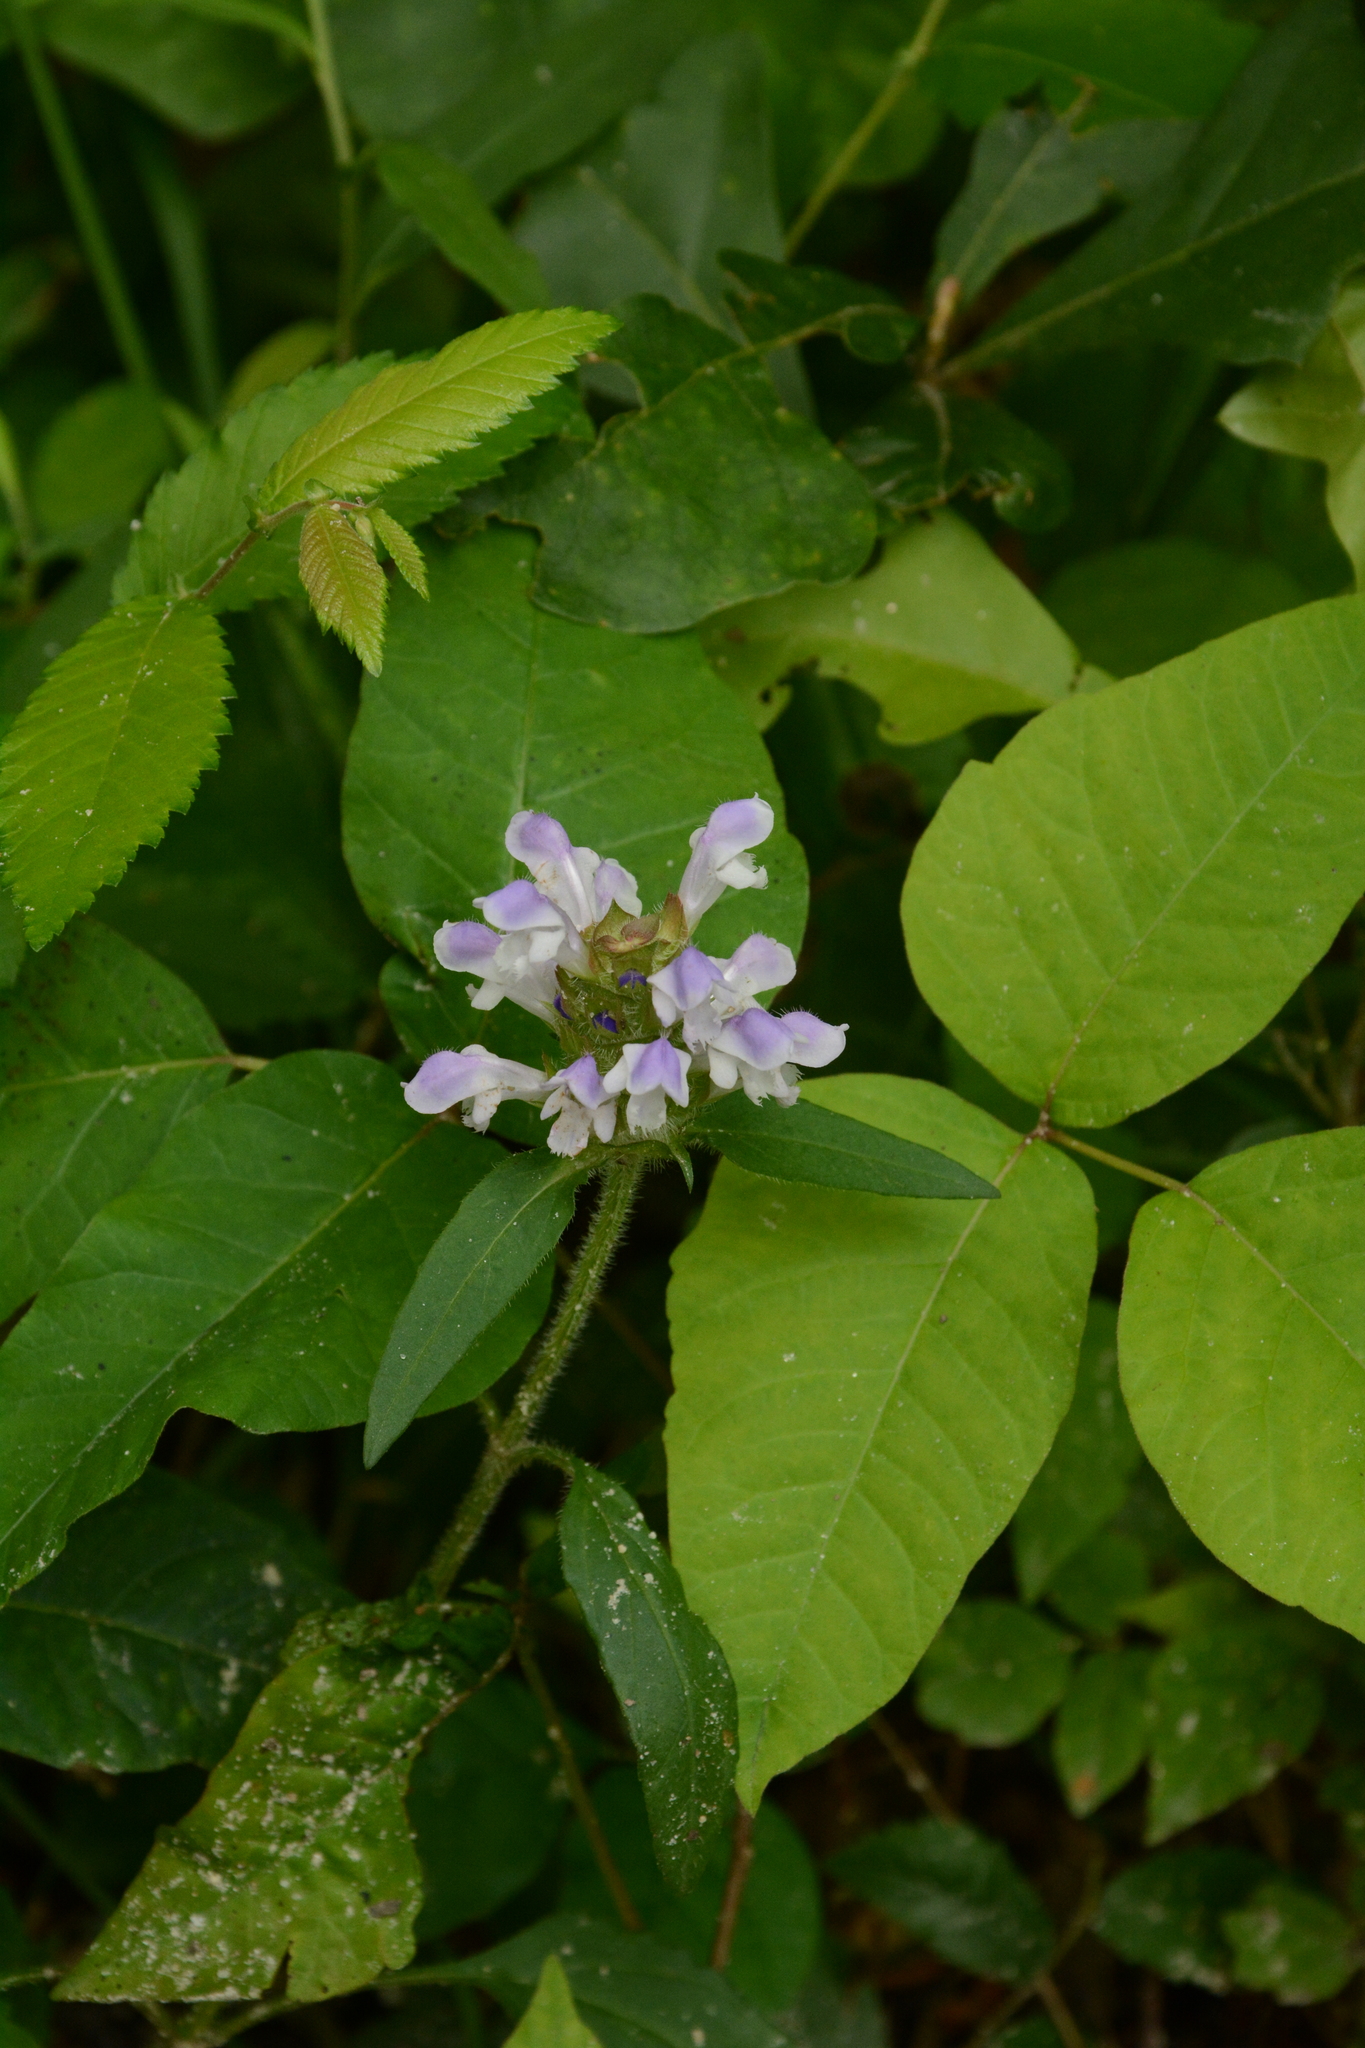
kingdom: Plantae
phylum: Tracheophyta
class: Magnoliopsida
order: Lamiales
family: Lamiaceae
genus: Prunella
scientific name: Prunella vulgaris
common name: Heal-all
